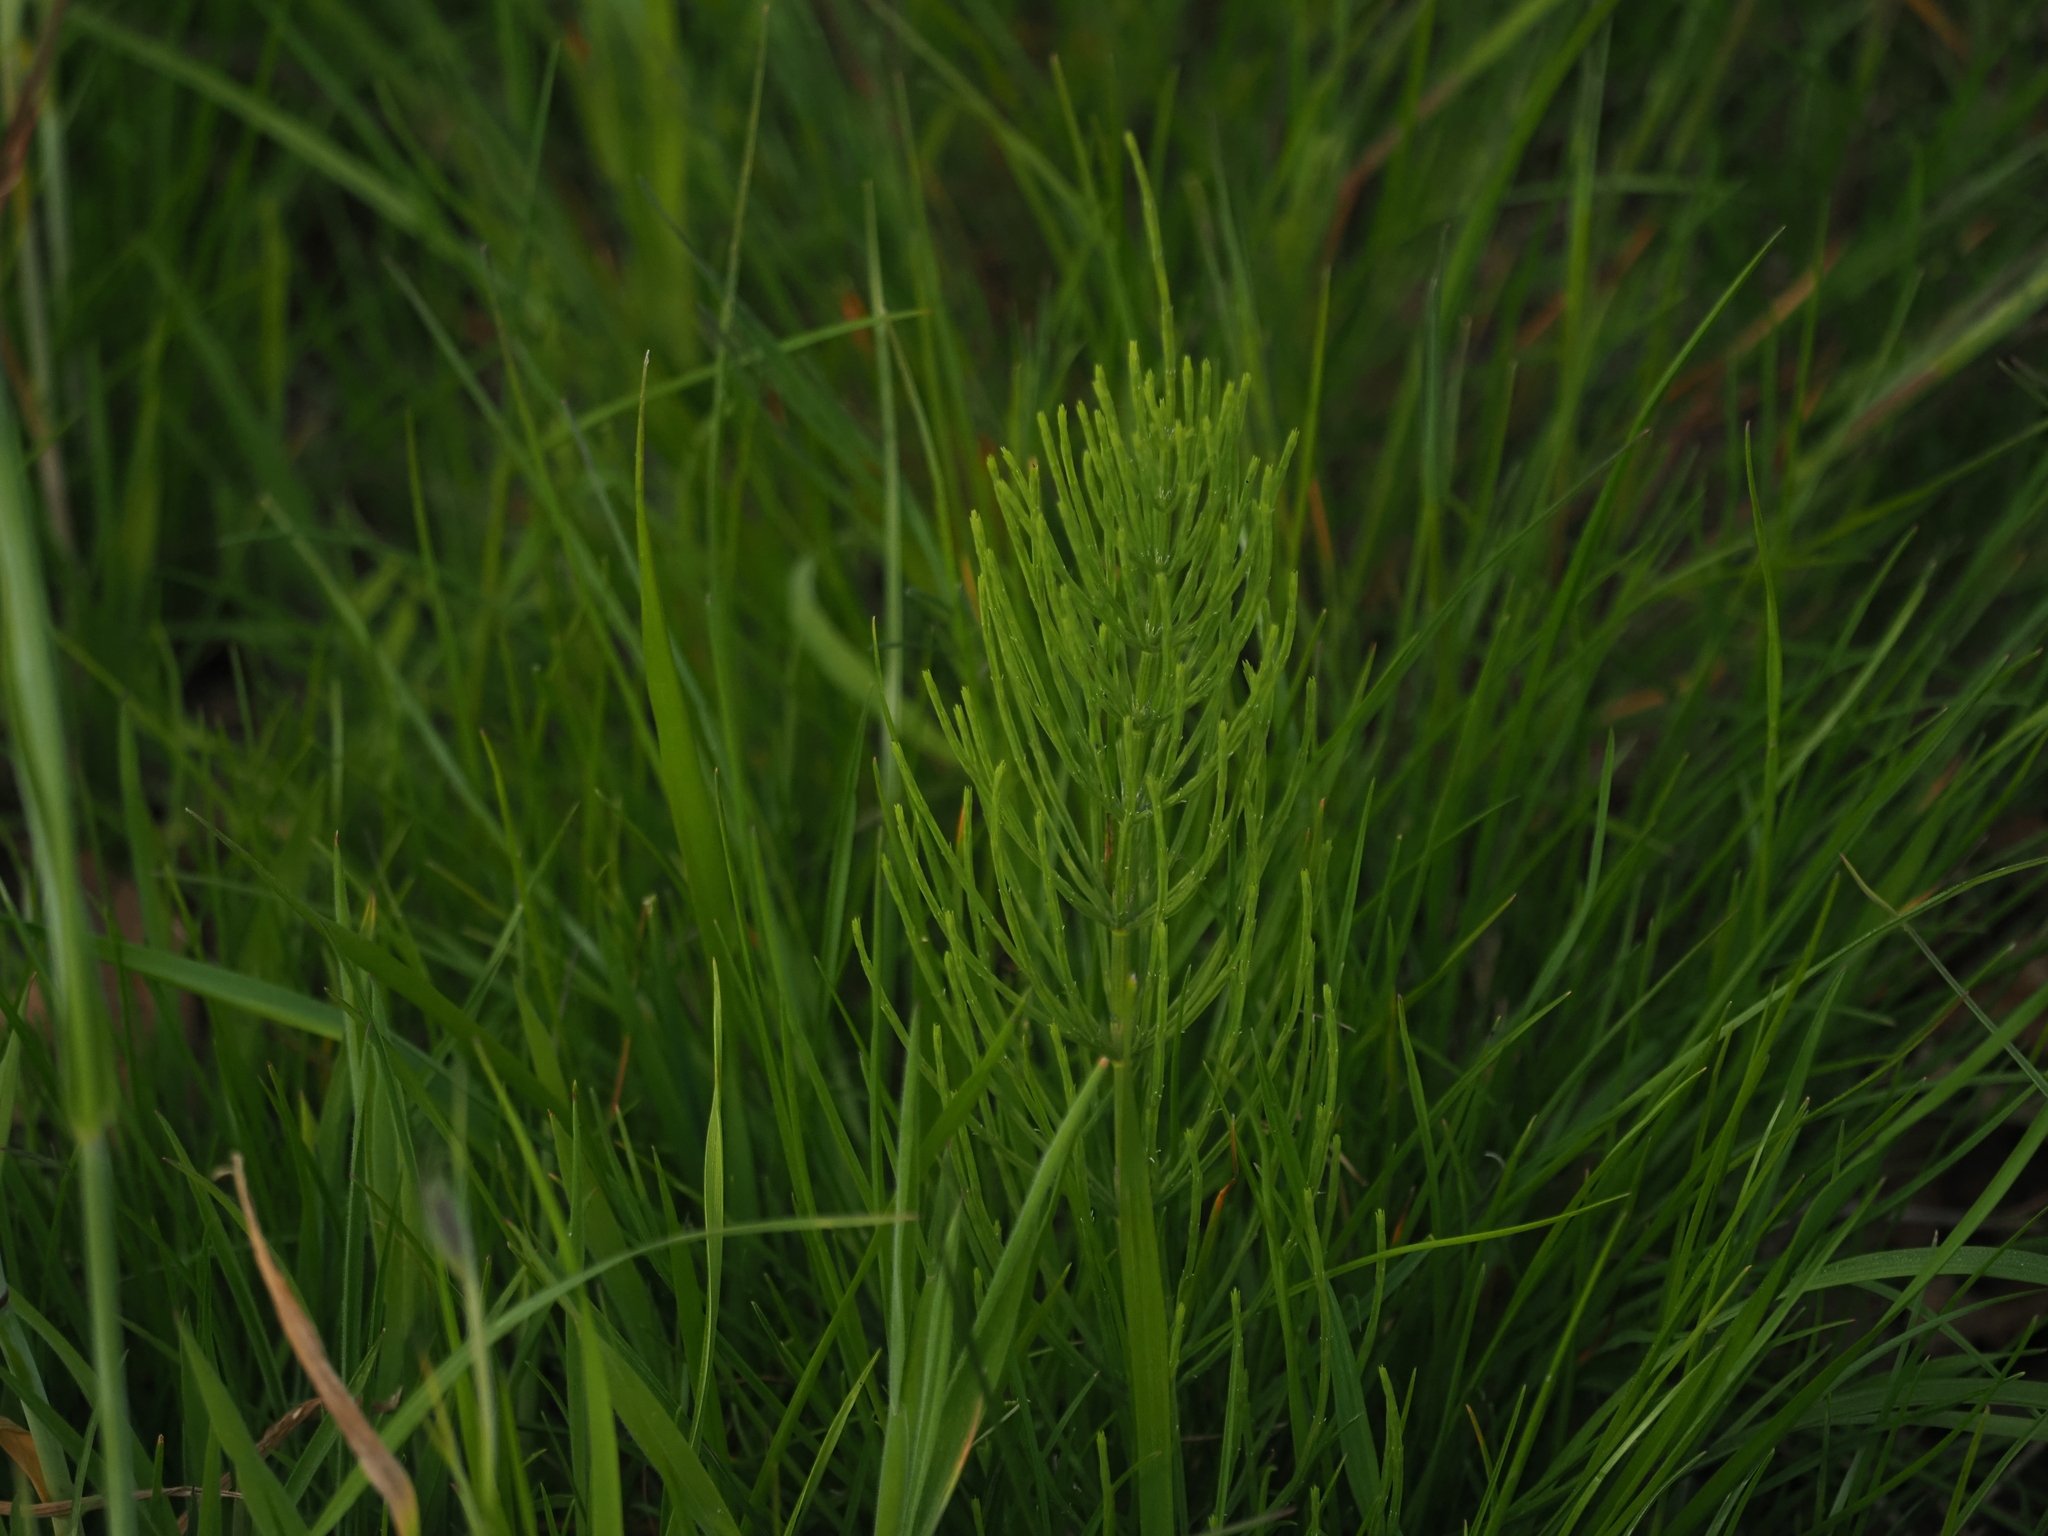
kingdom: Plantae
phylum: Tracheophyta
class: Polypodiopsida
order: Equisetales
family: Equisetaceae
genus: Equisetum
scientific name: Equisetum arvense
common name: Field horsetail
